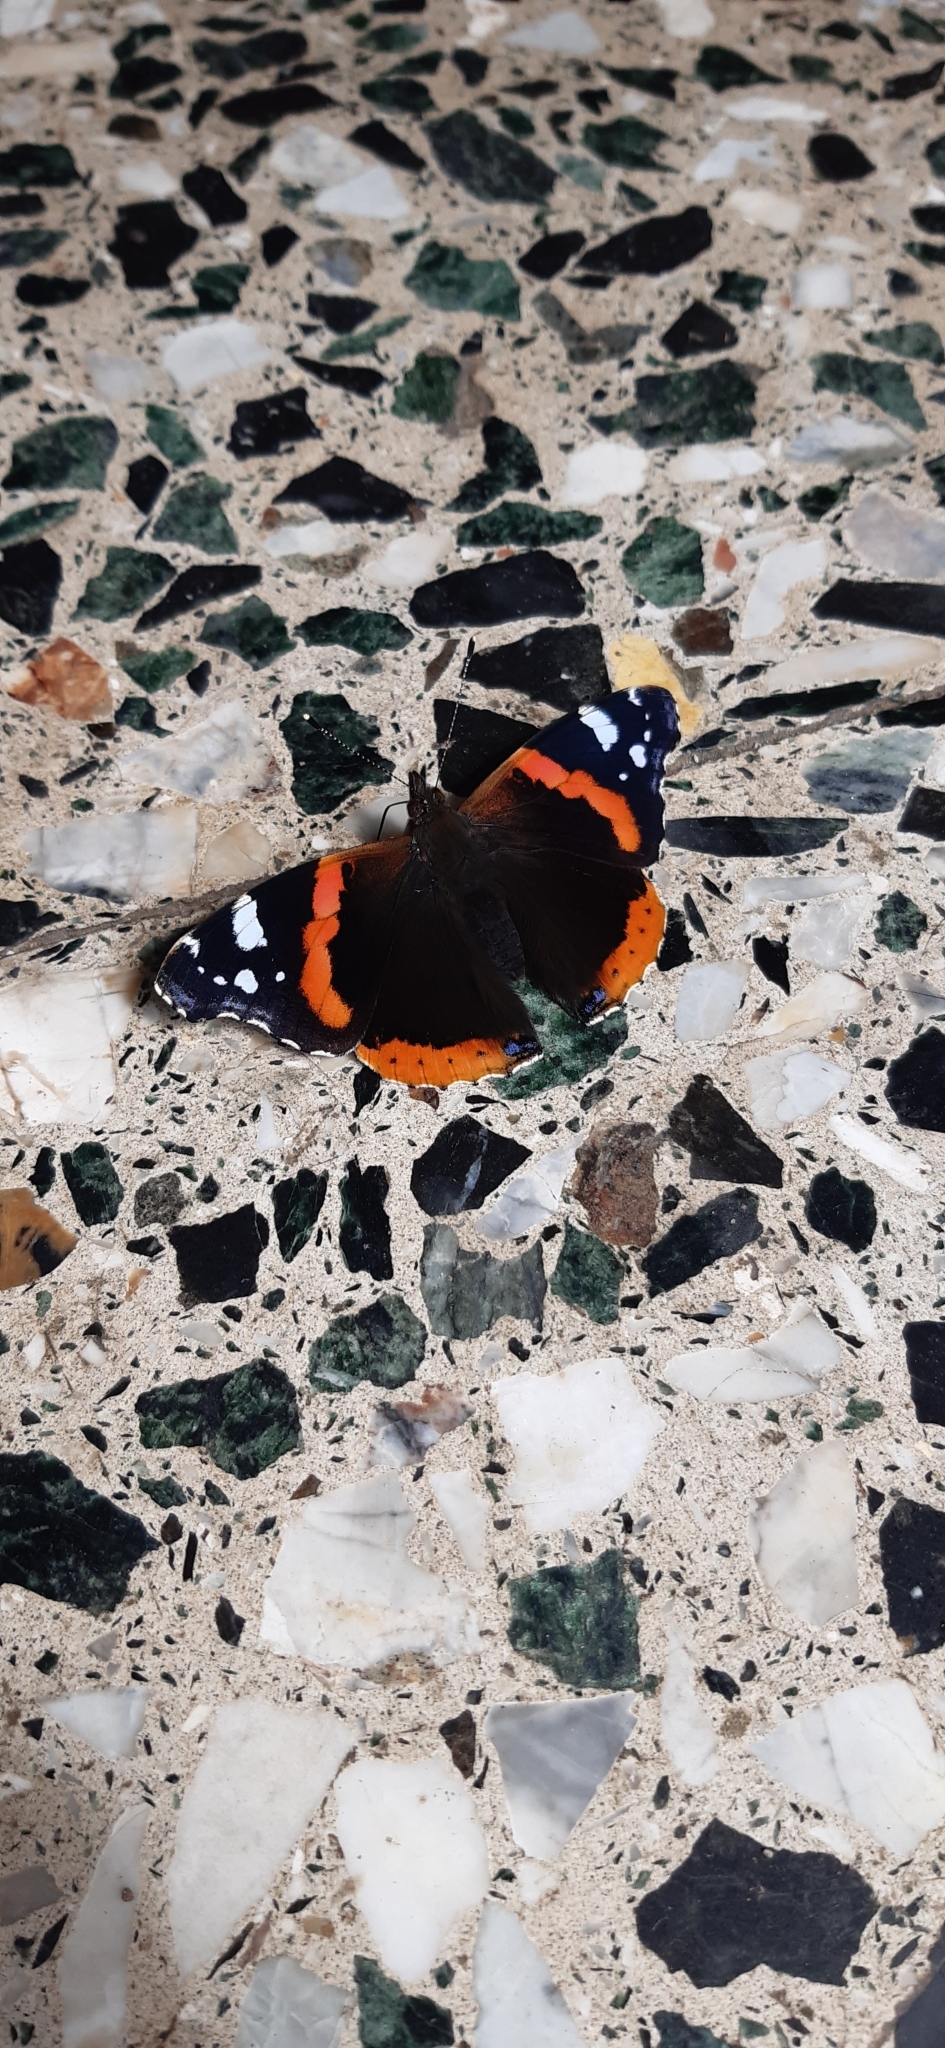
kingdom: Animalia
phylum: Arthropoda
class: Insecta
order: Lepidoptera
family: Nymphalidae
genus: Vanessa
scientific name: Vanessa atalanta
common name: Red admiral
